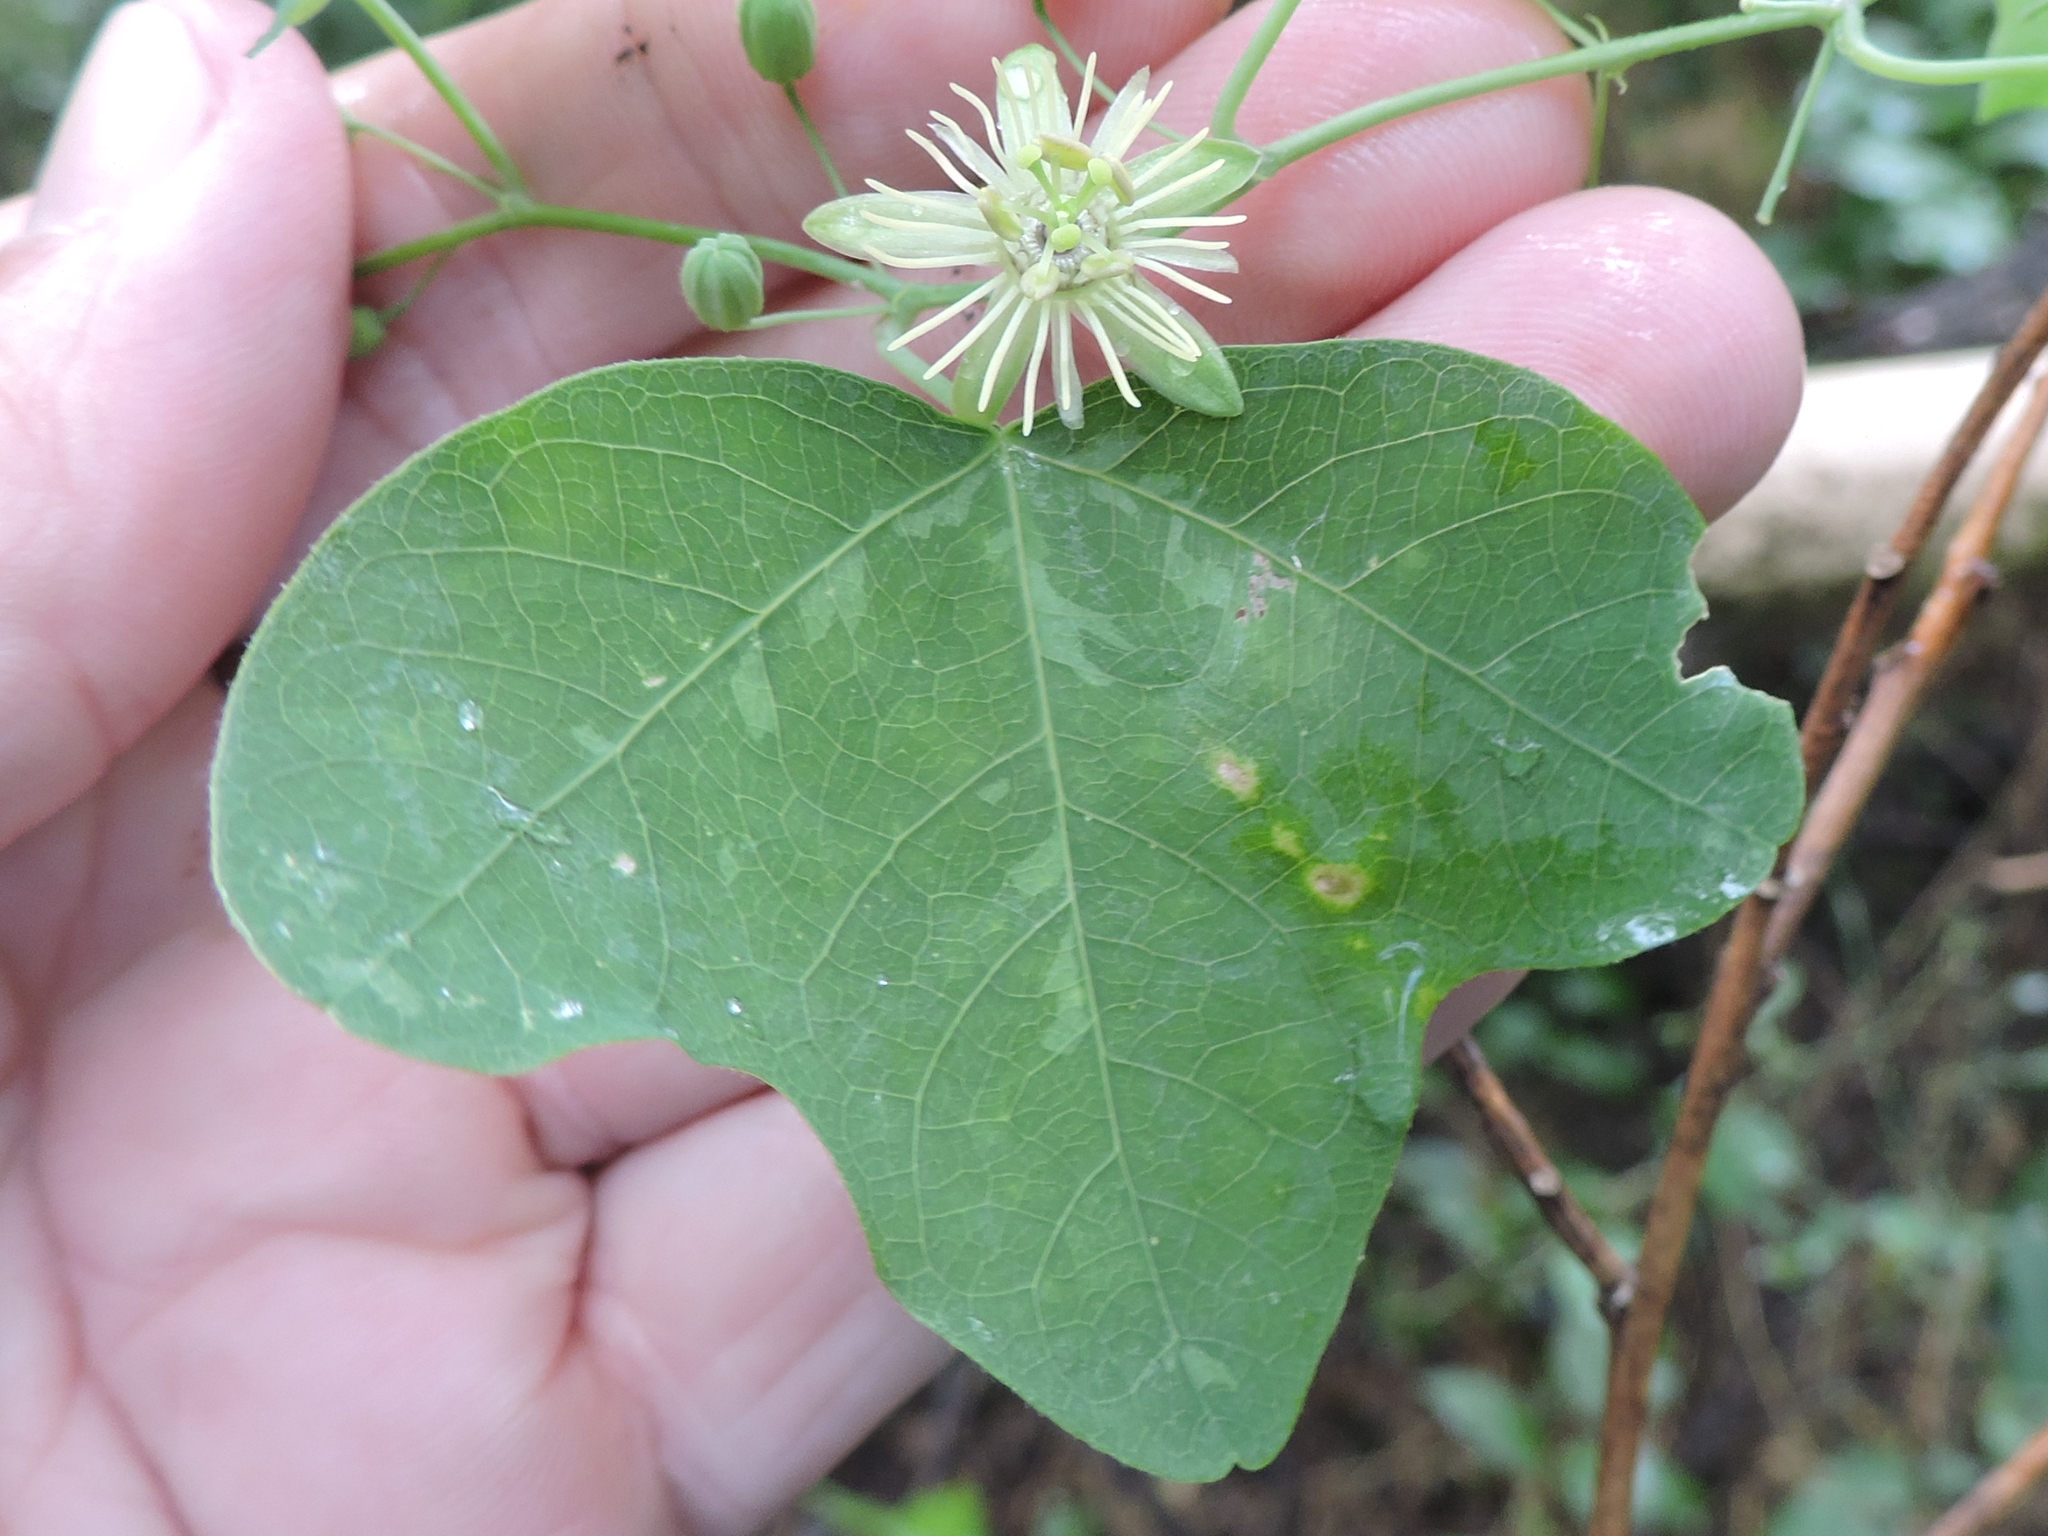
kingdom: Plantae
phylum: Tracheophyta
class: Magnoliopsida
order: Malpighiales
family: Passifloraceae
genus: Passiflora
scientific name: Passiflora lutea
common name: Yellow passionflower
